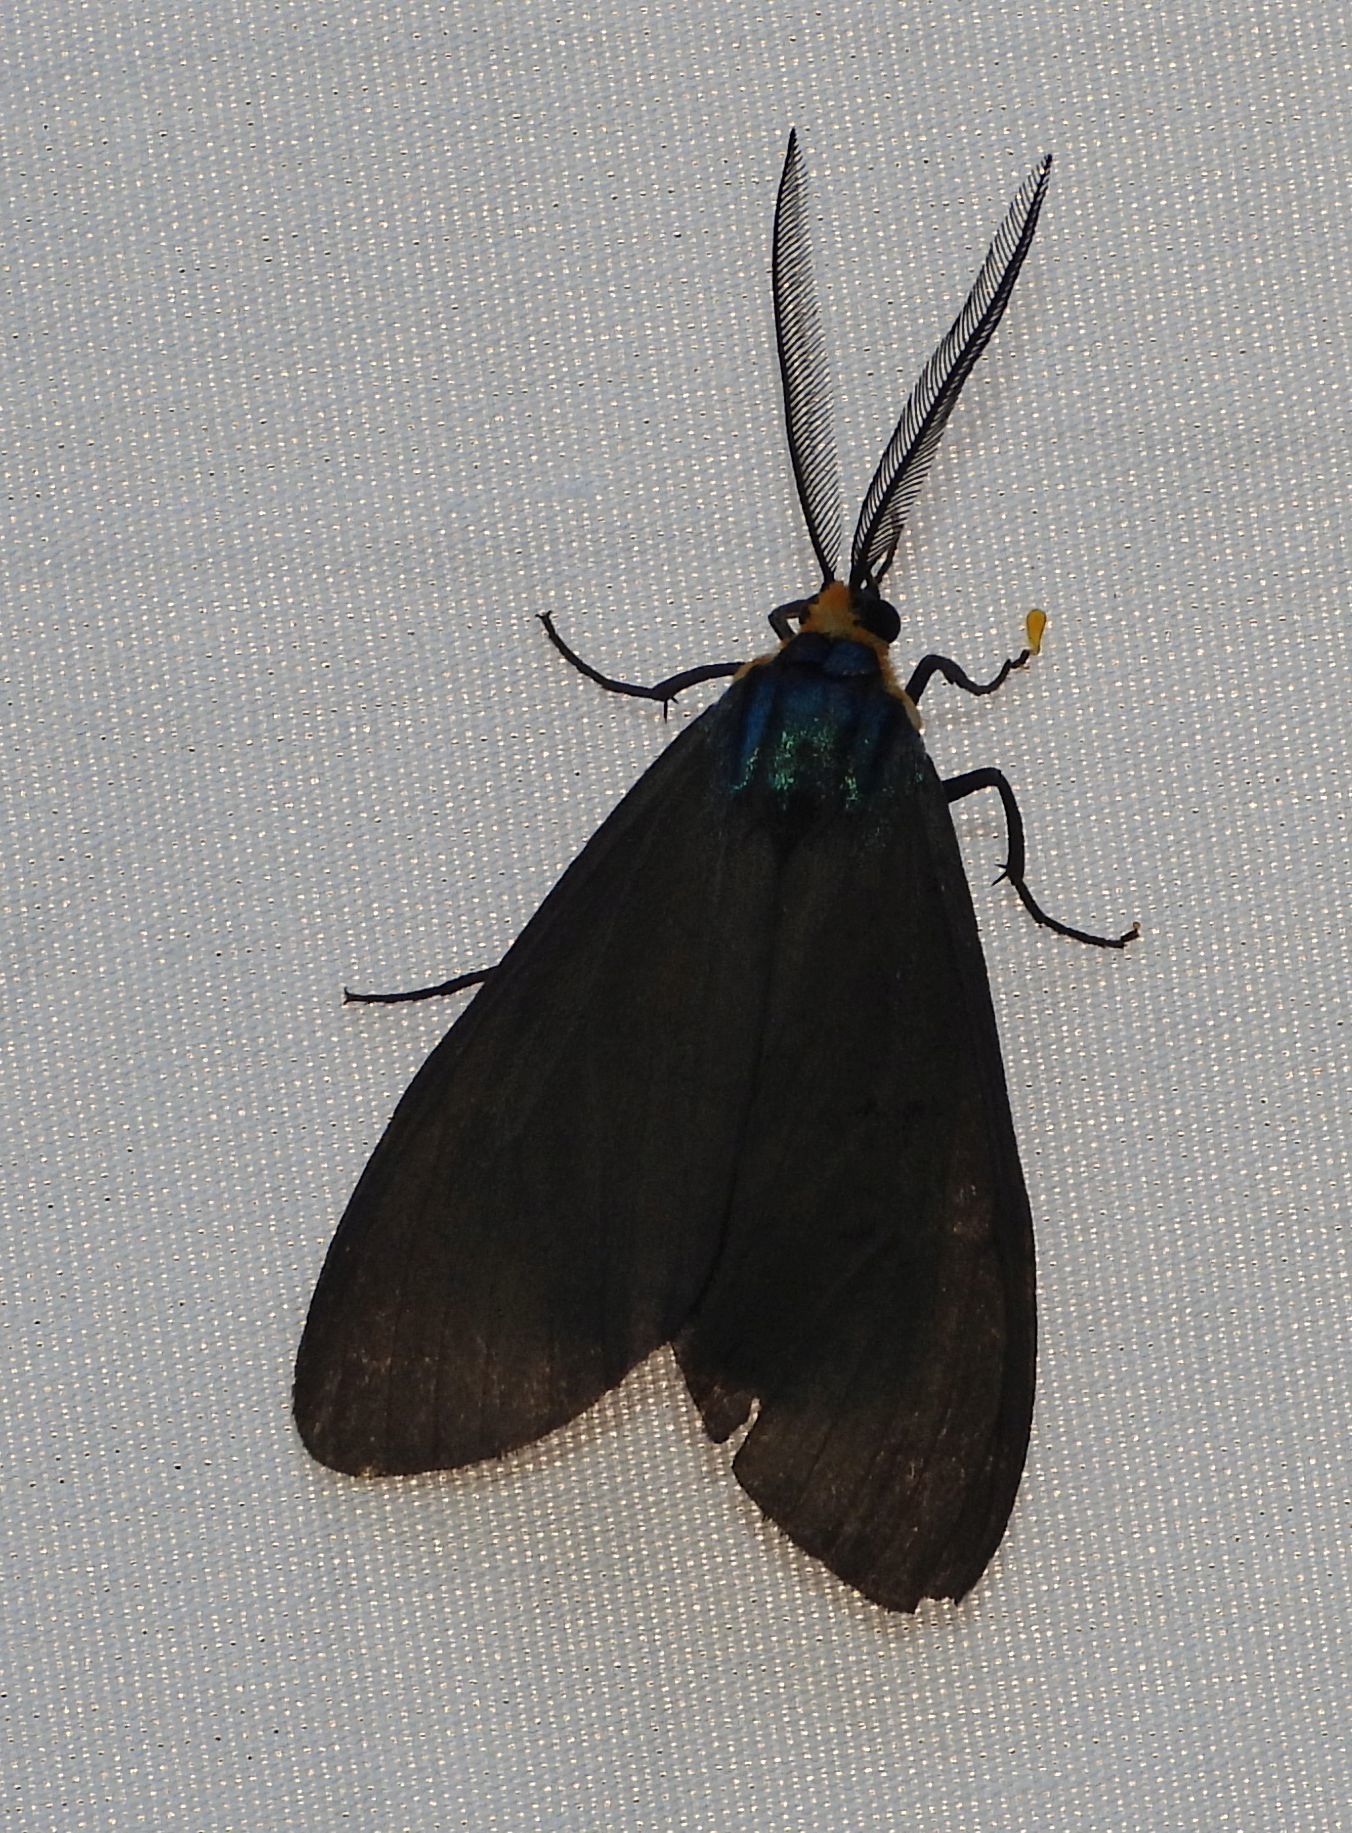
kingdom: Animalia
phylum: Arthropoda
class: Insecta
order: Lepidoptera
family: Erebidae
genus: Ctenucha
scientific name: Ctenucha virginica
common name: Virginia ctenucha moth
